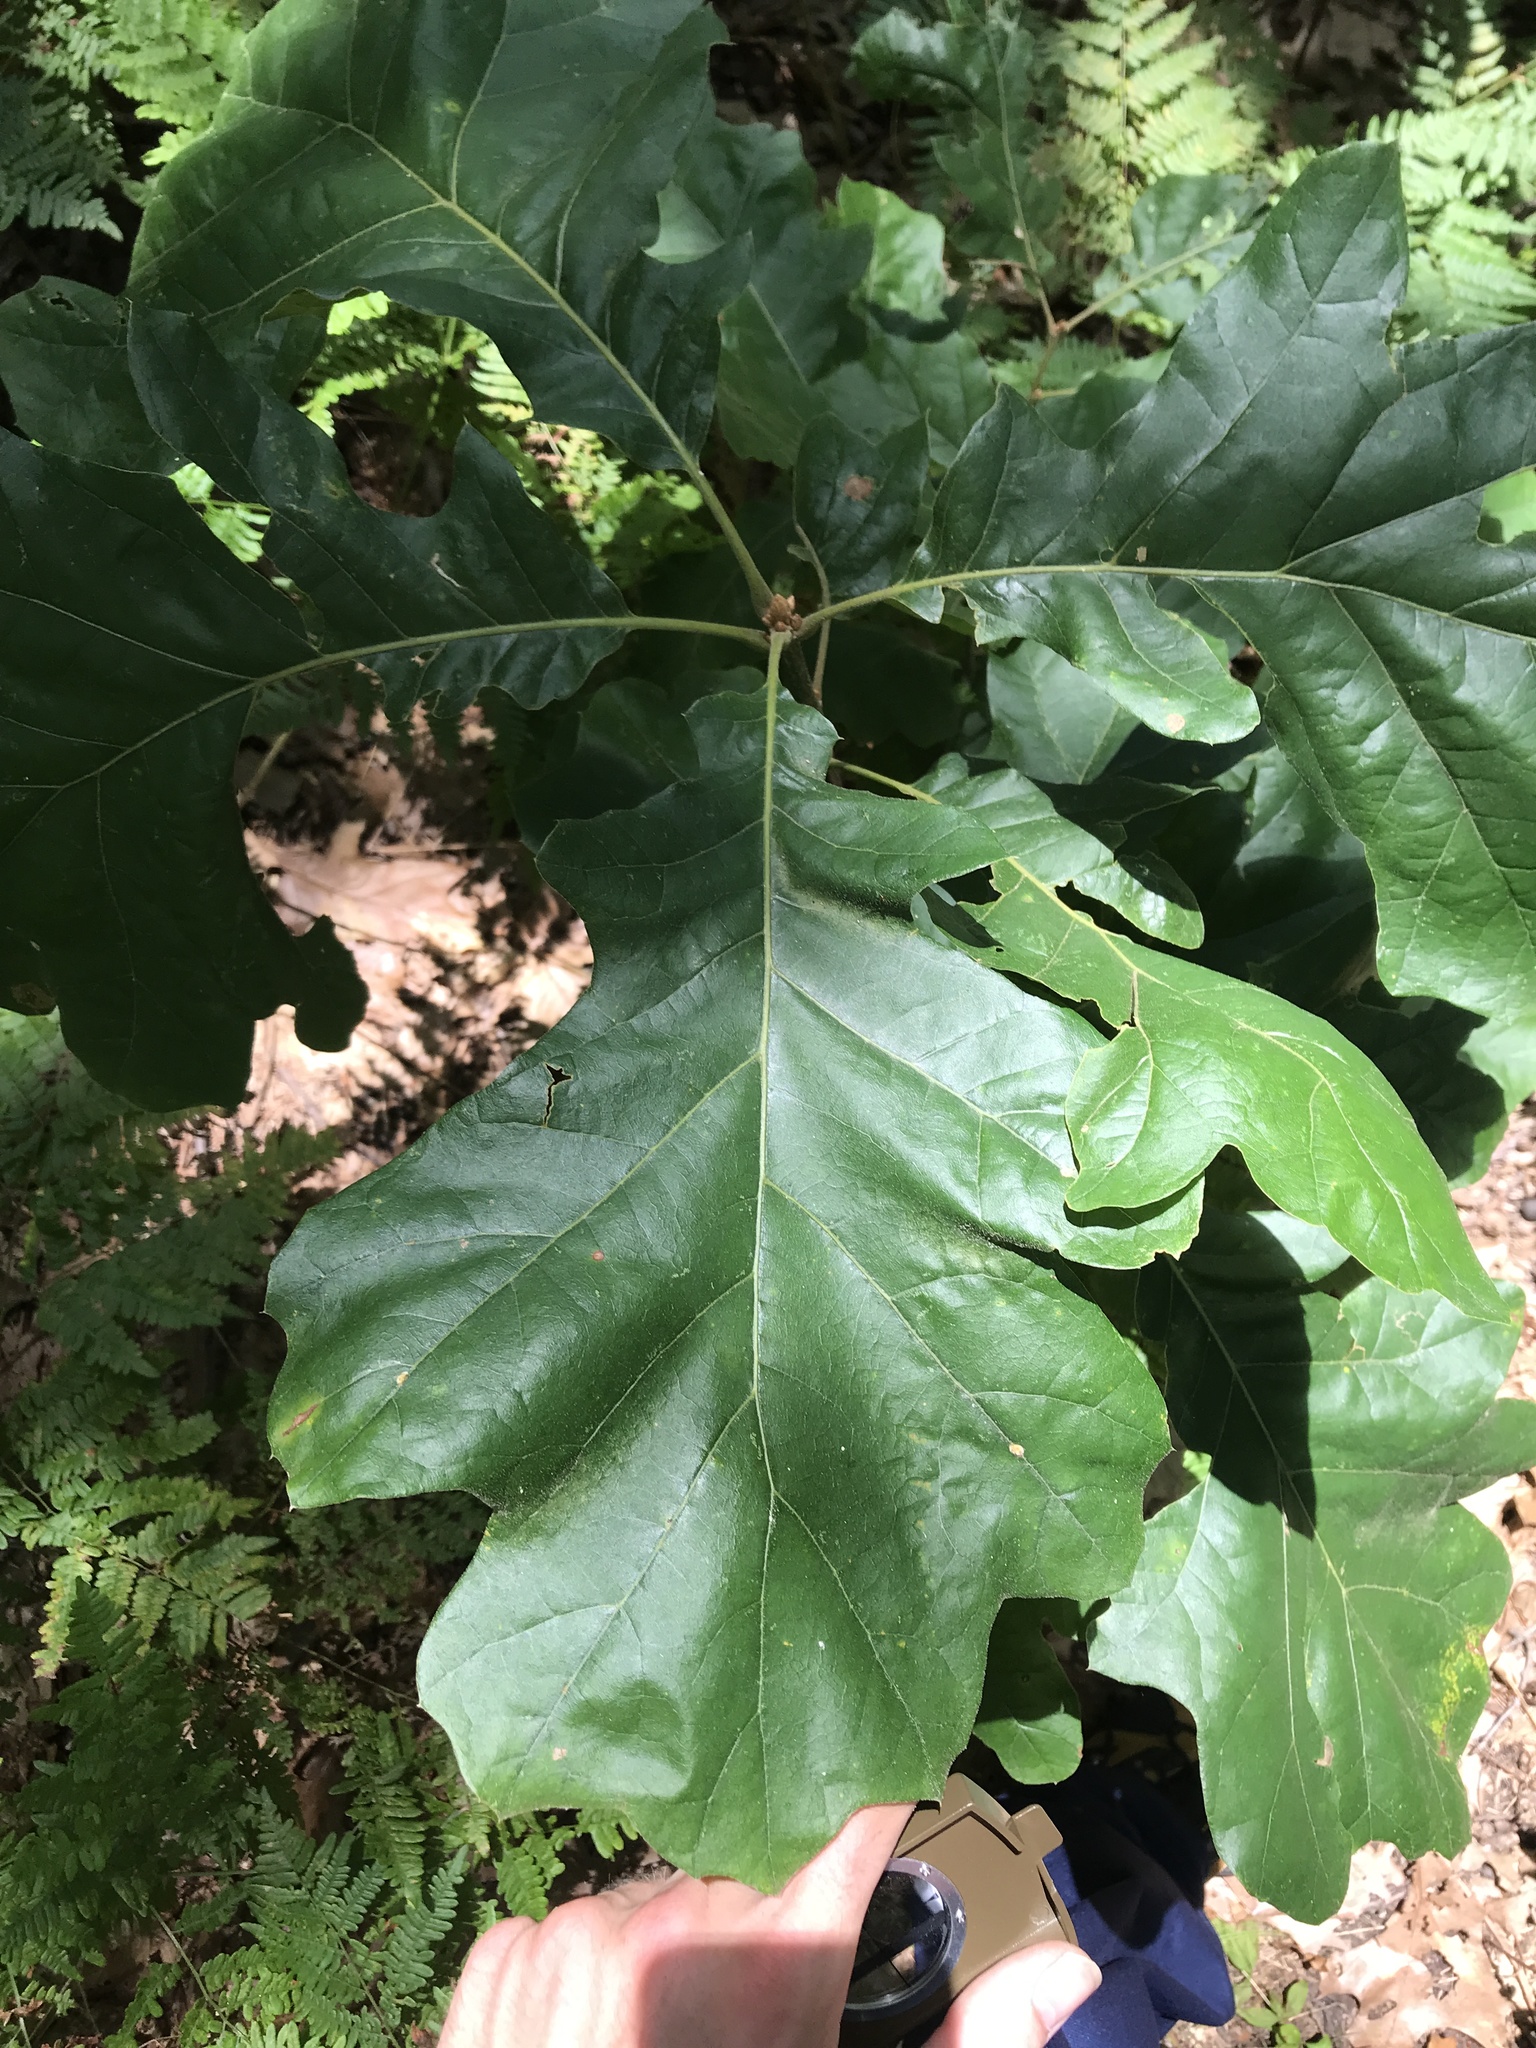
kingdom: Plantae
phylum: Tracheophyta
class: Magnoliopsida
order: Fagales
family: Fagaceae
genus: Quercus
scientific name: Quercus velutina
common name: Black oak
